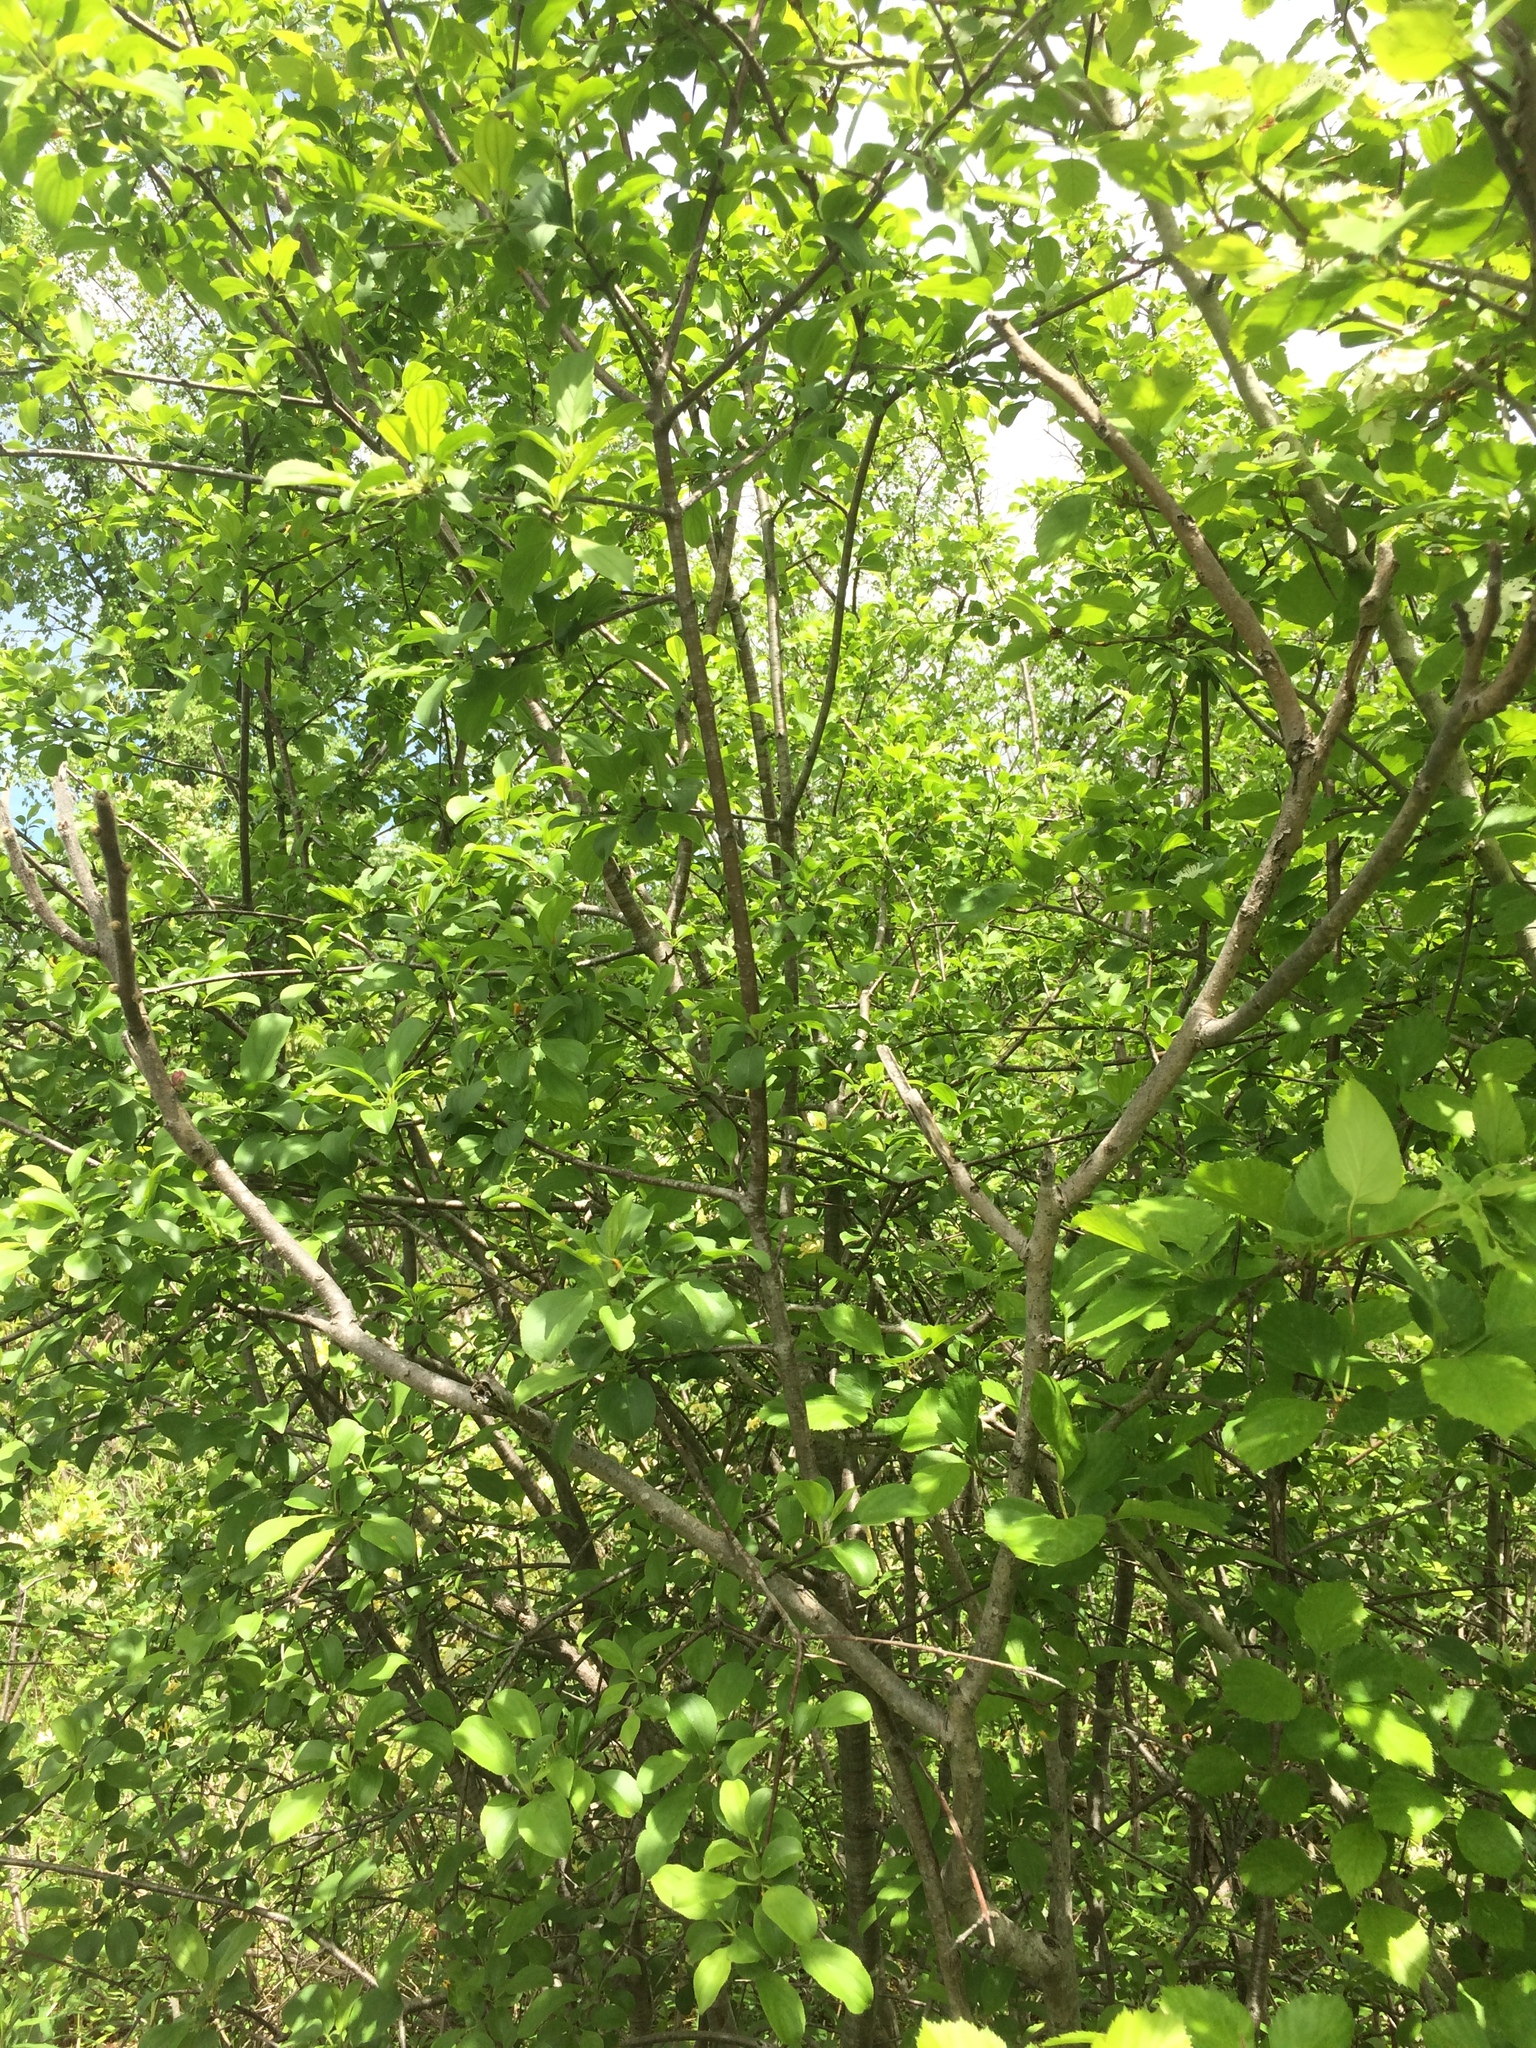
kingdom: Plantae
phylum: Tracheophyta
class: Magnoliopsida
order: Rosales
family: Rhamnaceae
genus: Rhamnus
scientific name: Rhamnus cathartica
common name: Common buckthorn
